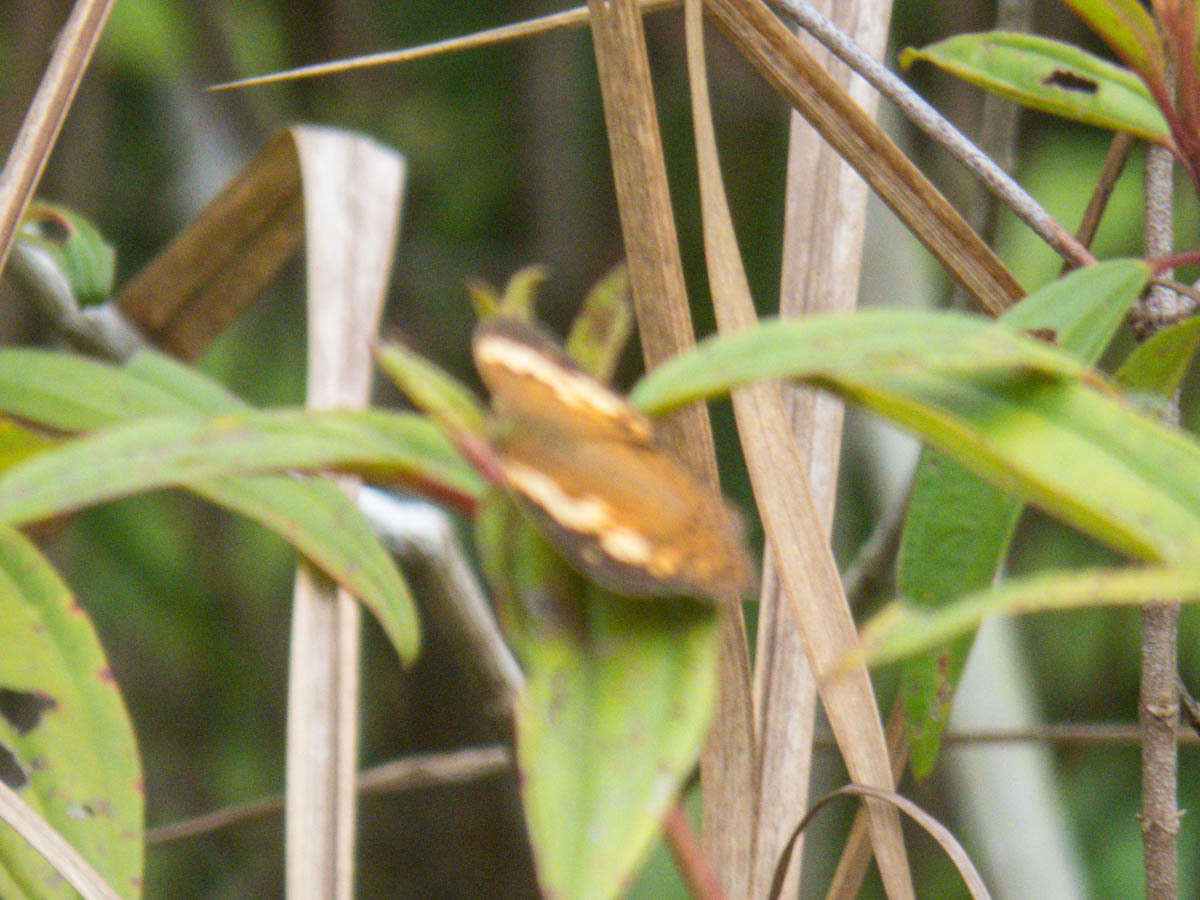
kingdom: Animalia
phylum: Arthropoda
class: Insecta
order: Lepidoptera
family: Nymphalidae
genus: Cupha
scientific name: Cupha erymanthis
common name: Rustic
